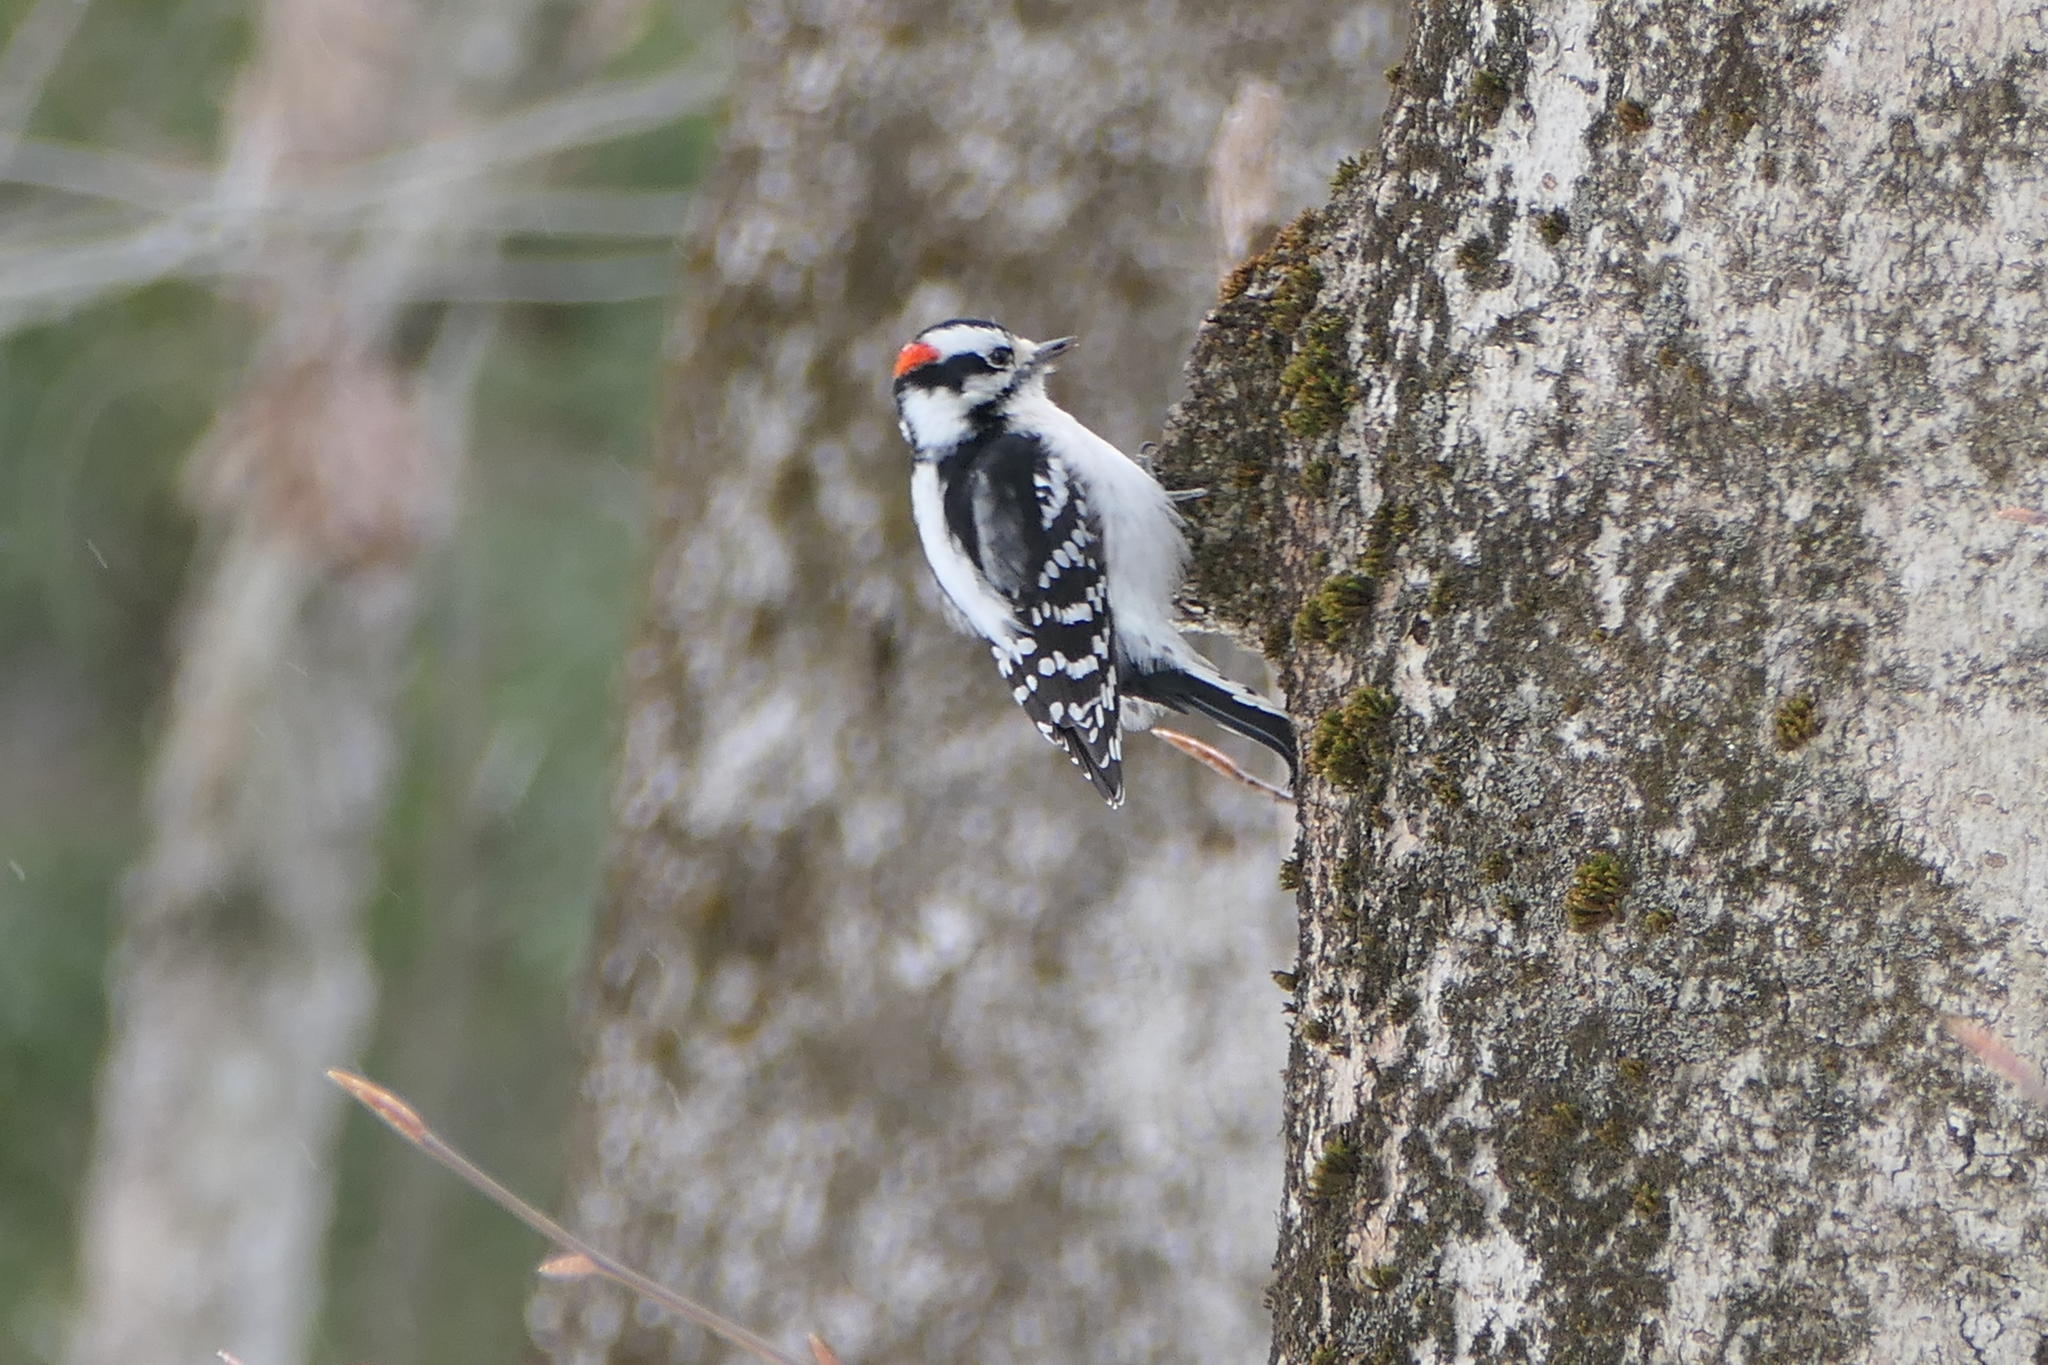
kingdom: Animalia
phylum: Chordata
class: Aves
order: Piciformes
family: Picidae
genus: Dryobates
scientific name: Dryobates pubescens
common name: Downy woodpecker
